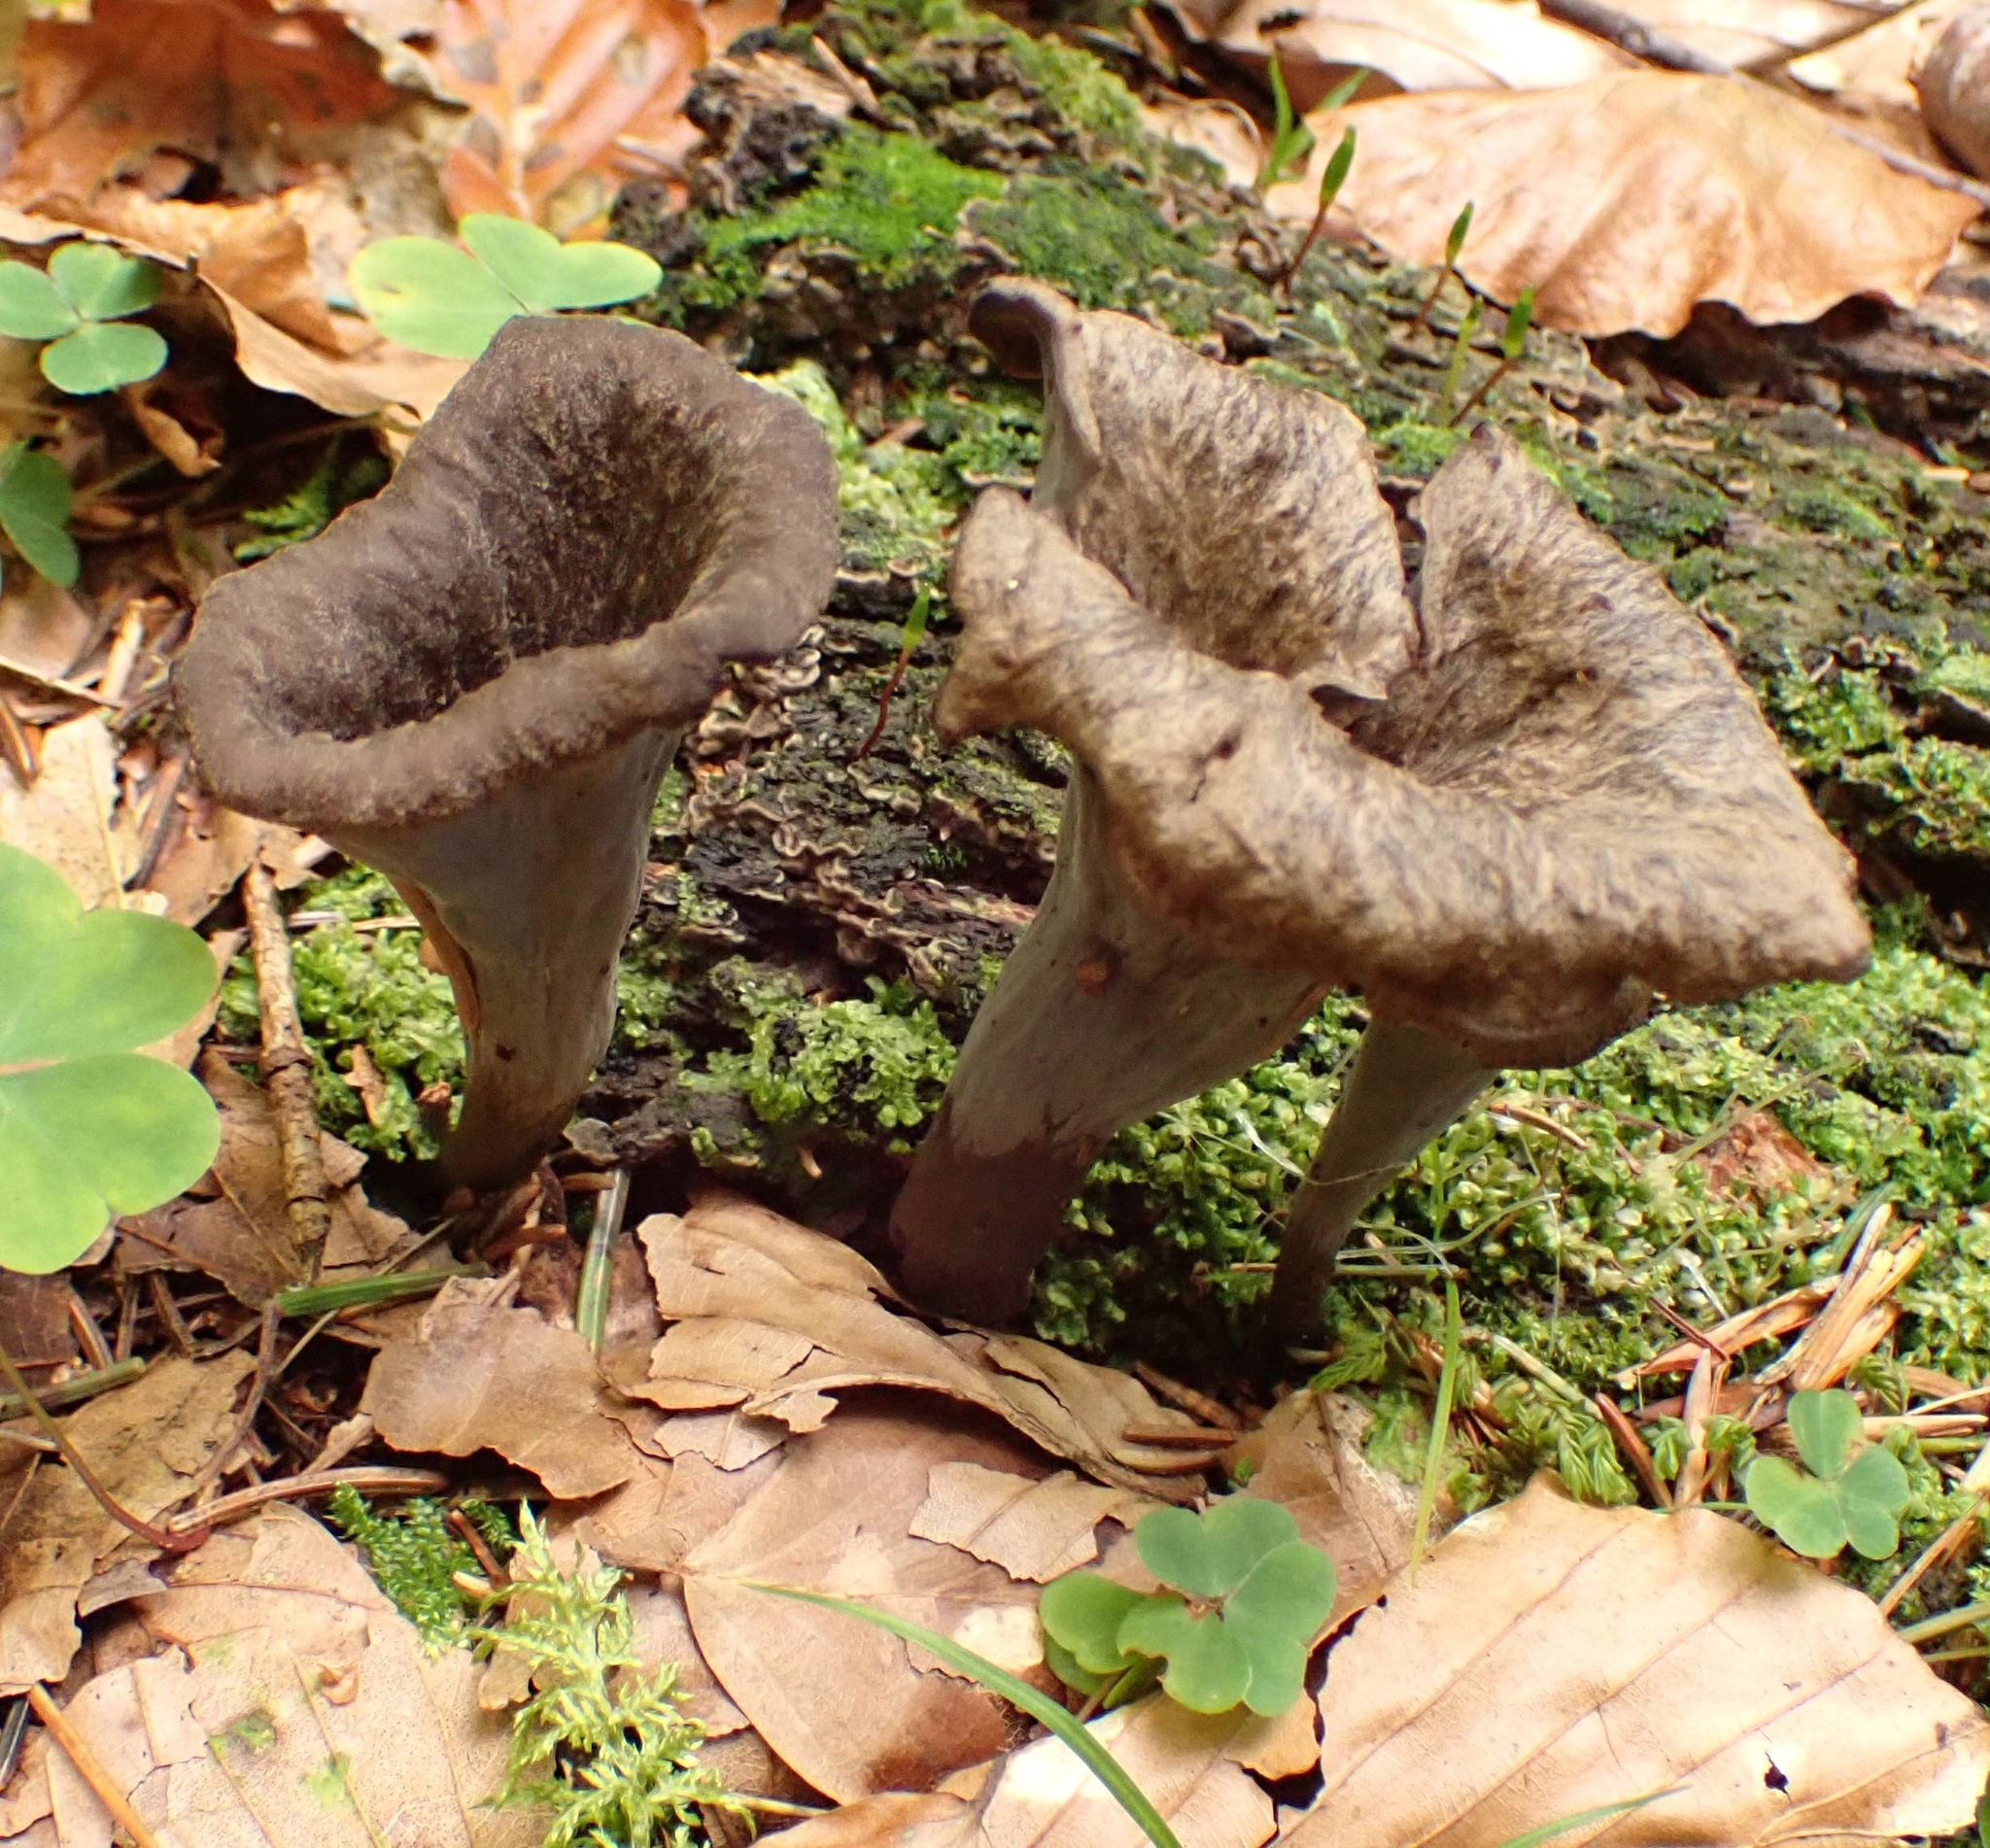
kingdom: Fungi
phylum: Basidiomycota
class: Agaricomycetes
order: Cantharellales
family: Hydnaceae
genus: Craterellus
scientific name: Craterellus cornucopioides
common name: Horn of plenty
